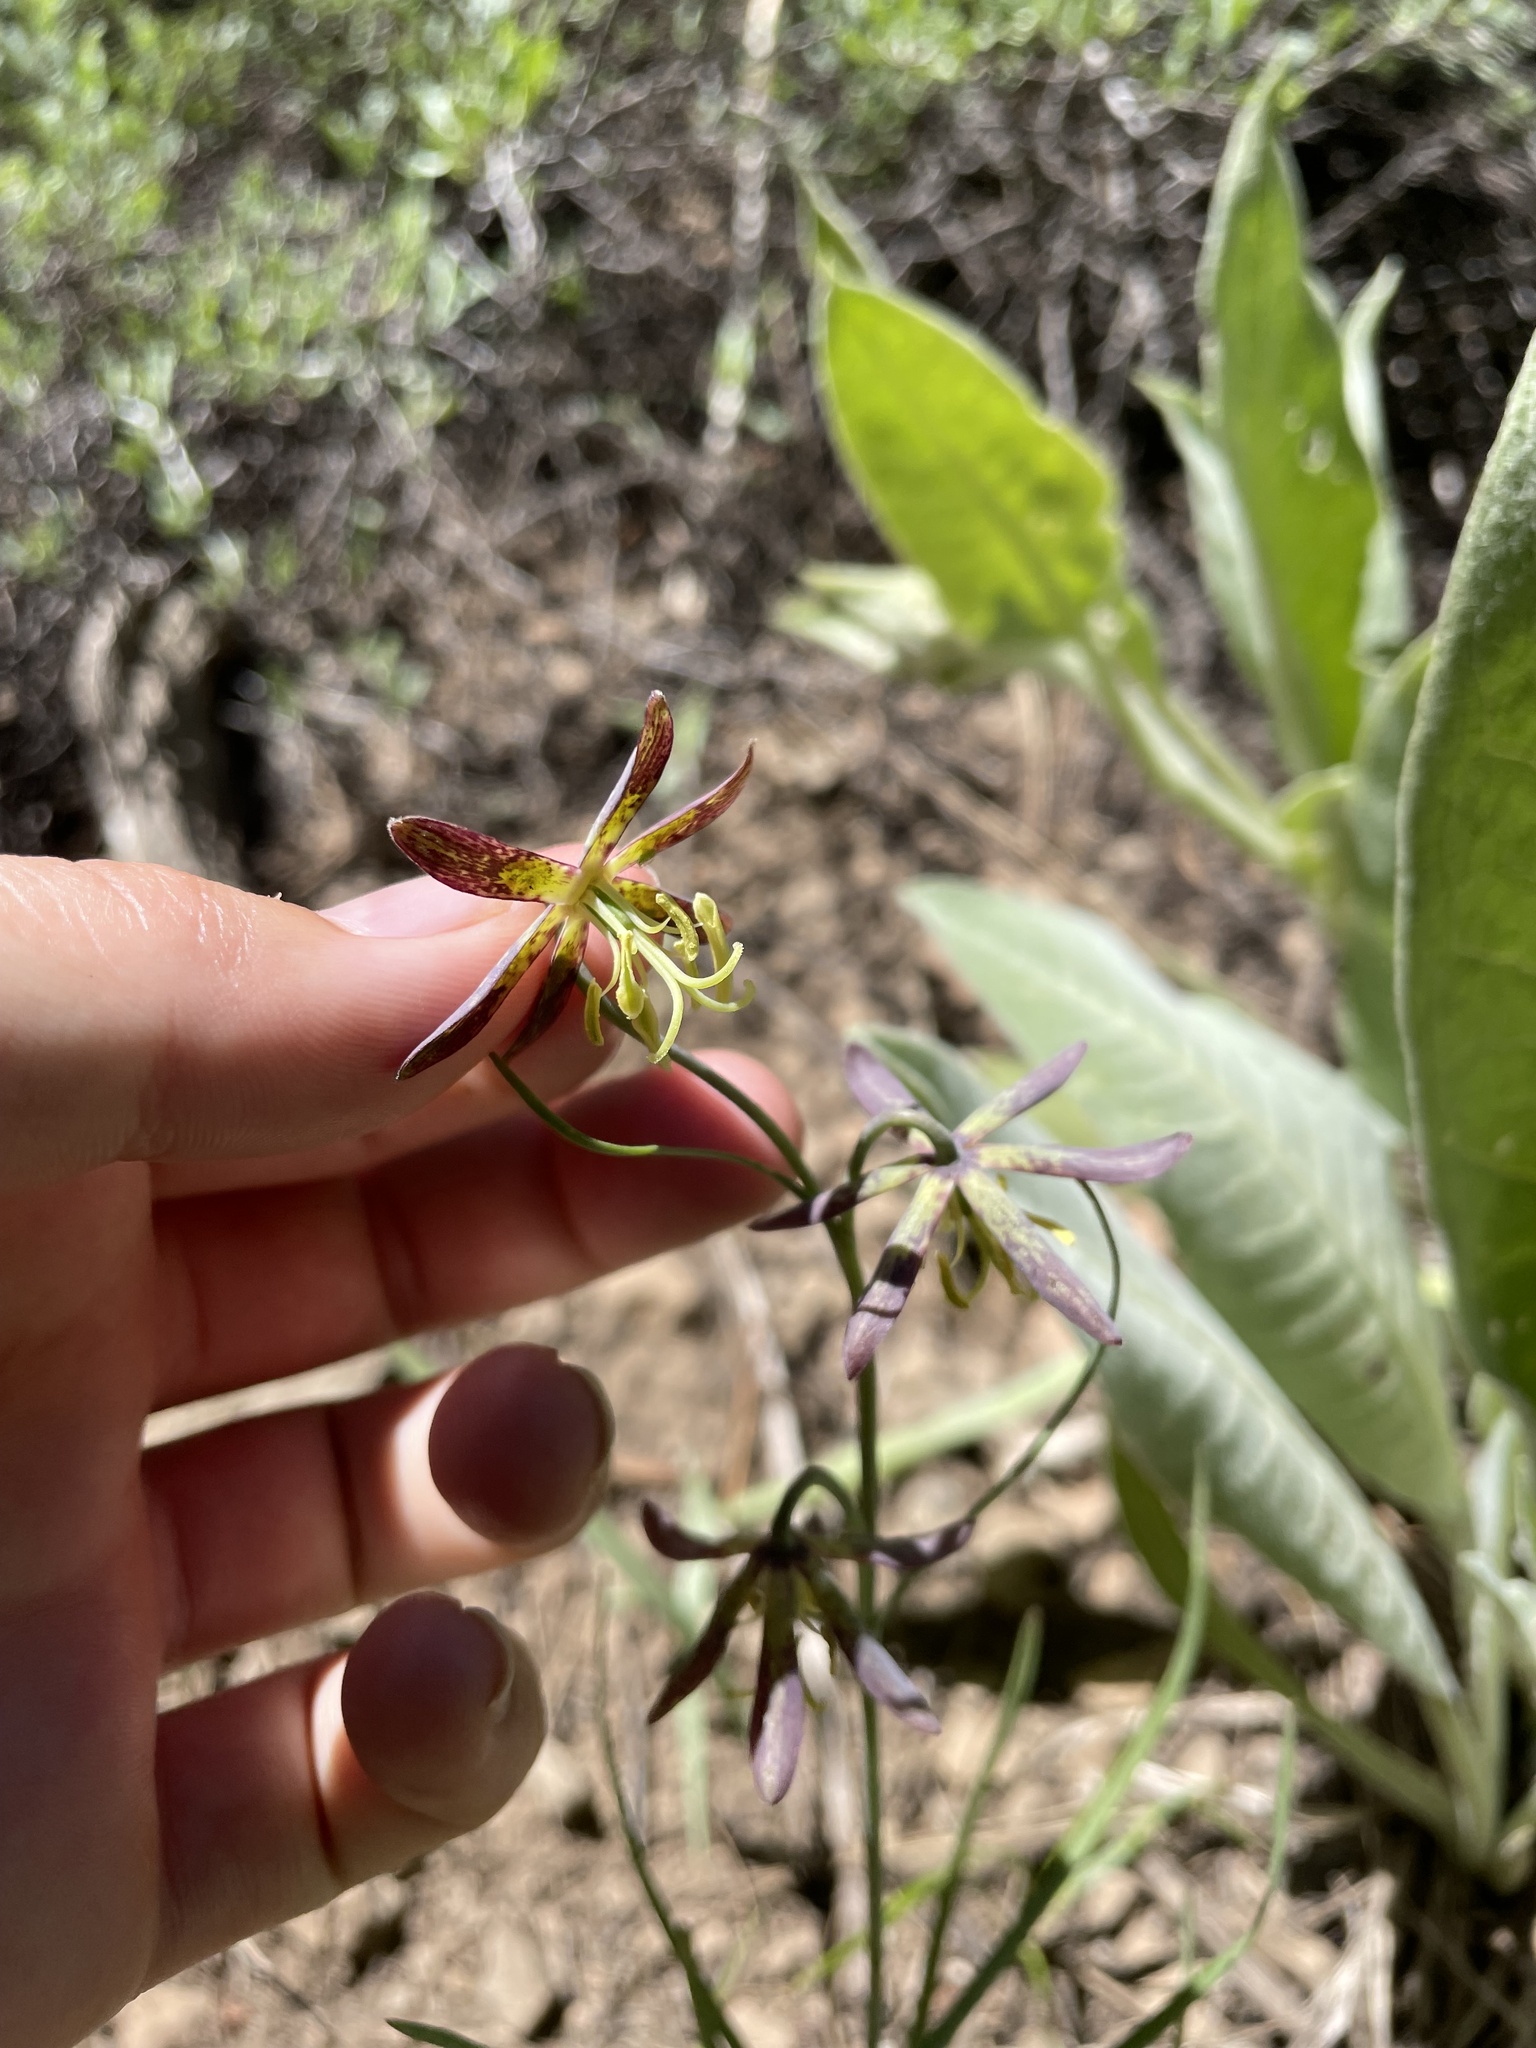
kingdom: Plantae
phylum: Tracheophyta
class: Liliopsida
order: Liliales
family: Liliaceae
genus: Fritillaria
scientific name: Fritillaria atropurpurea
